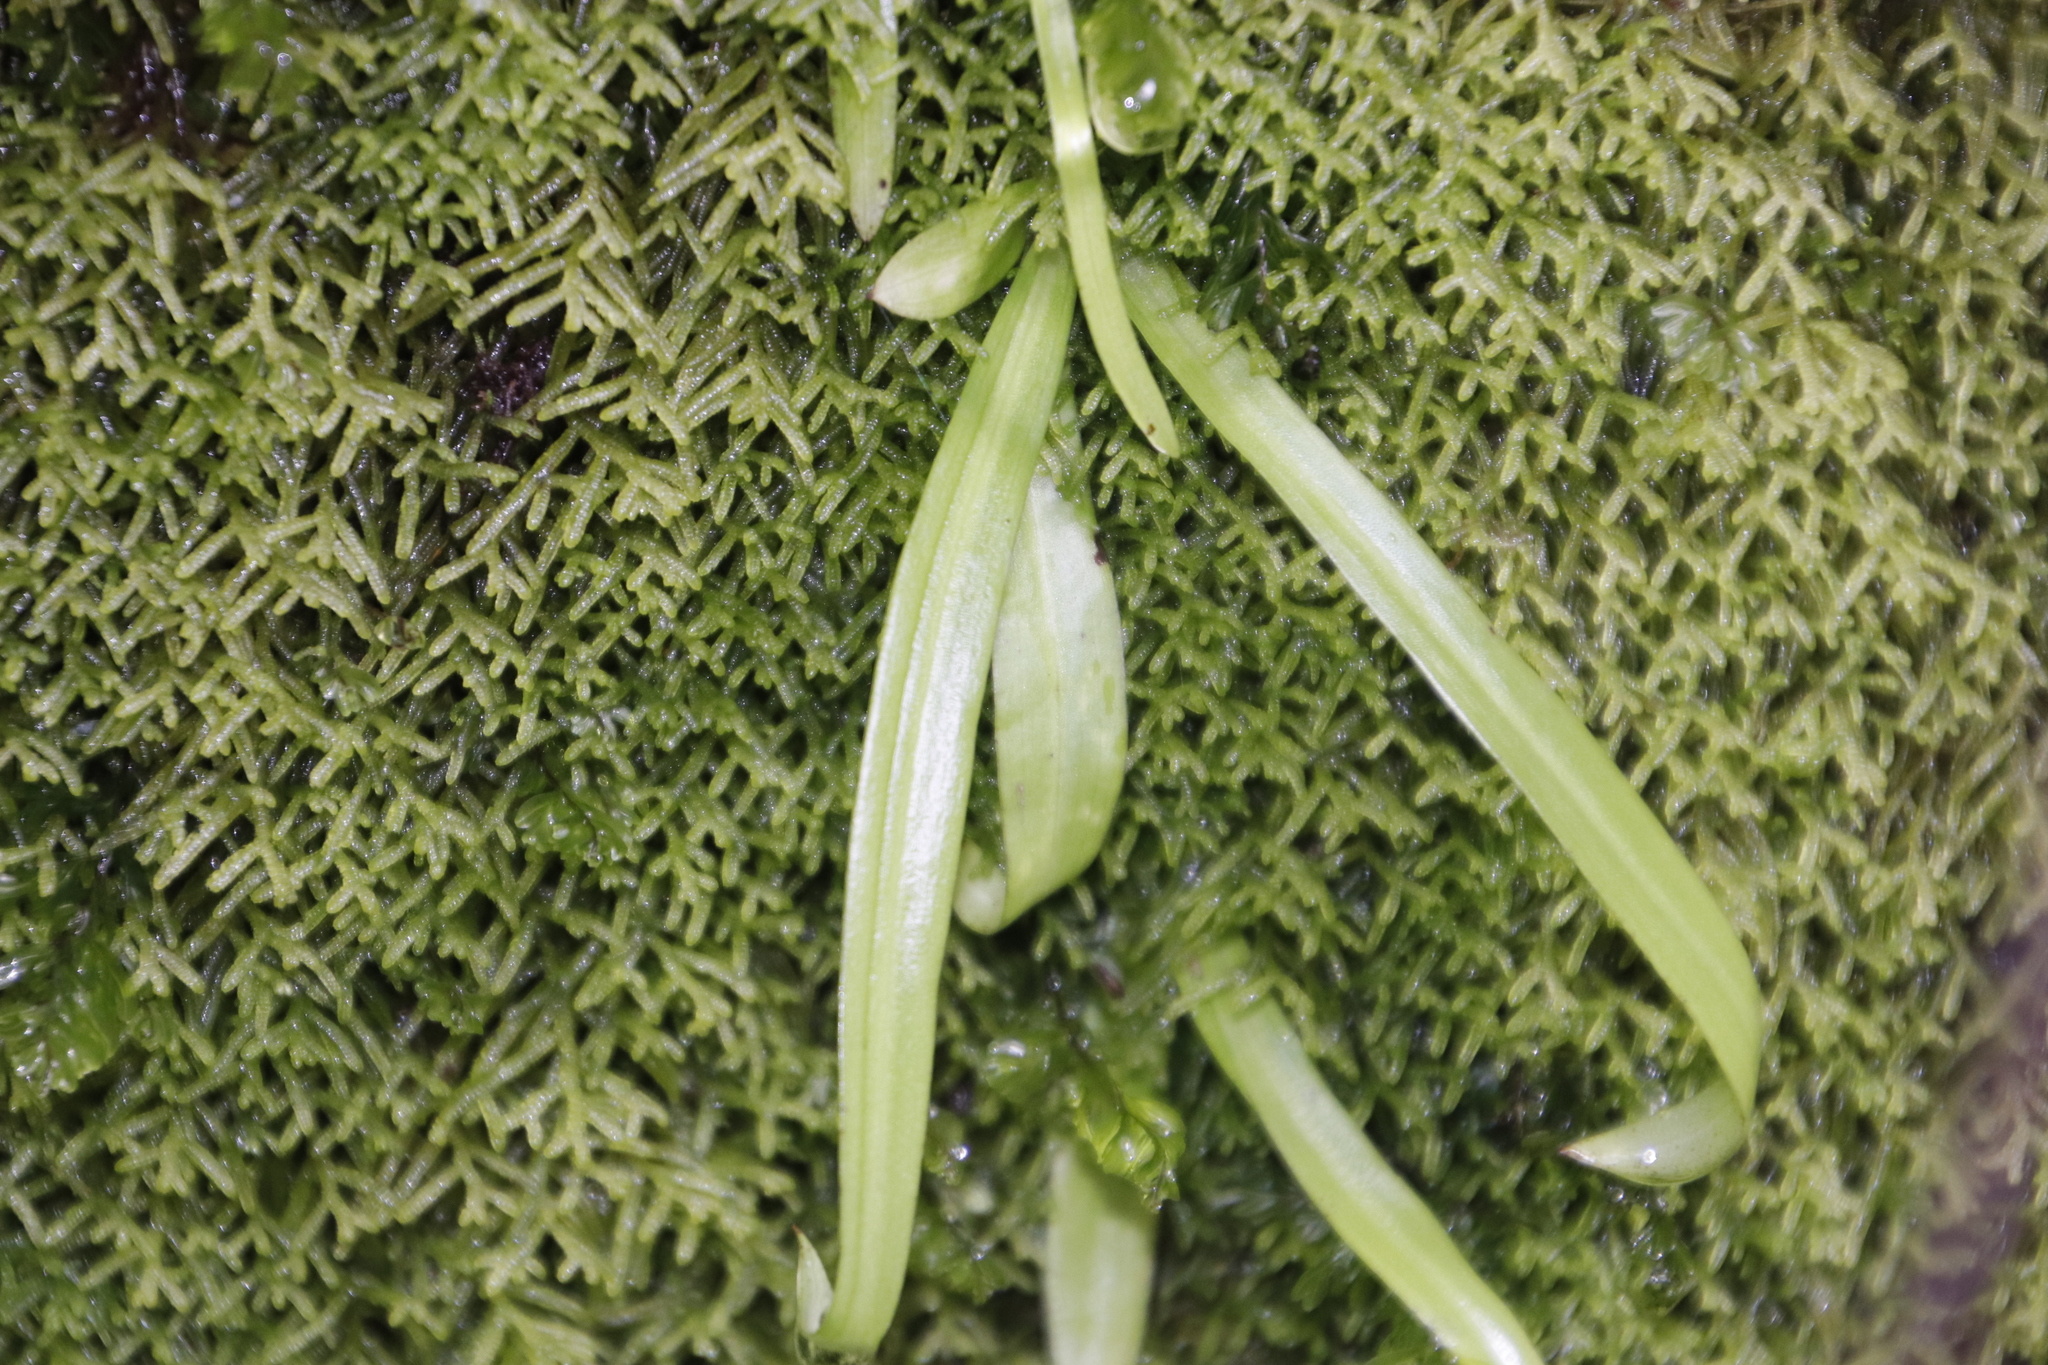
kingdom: Plantae
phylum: Marchantiophyta
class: Jungermanniopsida
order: Jungermanniales
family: Lepidoziaceae
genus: Lepidozia
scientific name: Lepidozia cupressina
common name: Rock fingerwort
